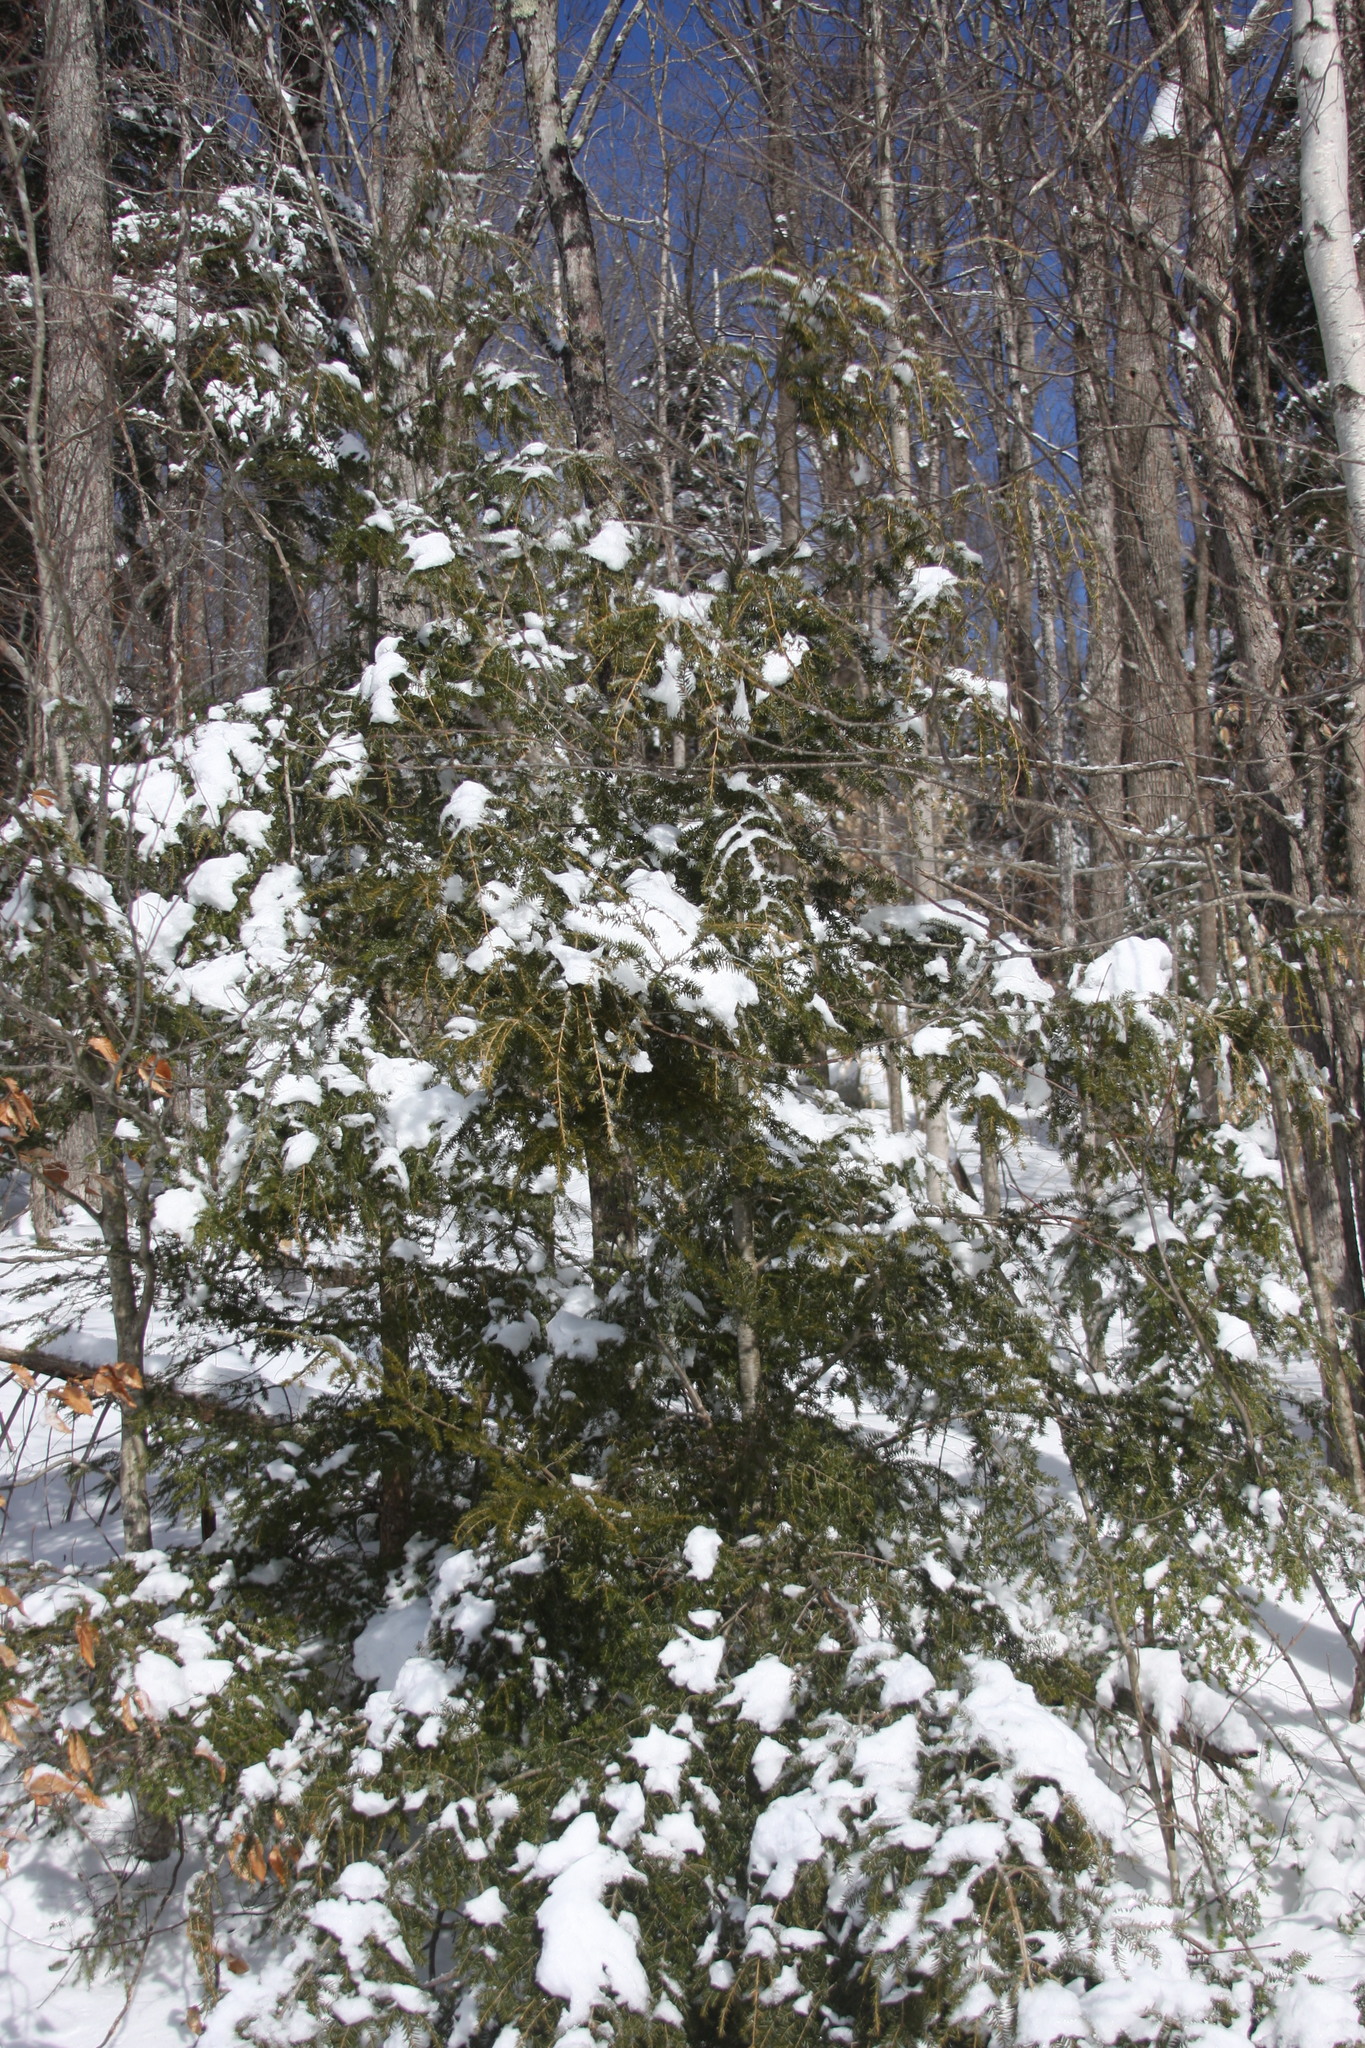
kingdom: Plantae
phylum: Tracheophyta
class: Pinopsida
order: Pinales
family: Pinaceae
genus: Tsuga
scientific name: Tsuga canadensis
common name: Eastern hemlock
